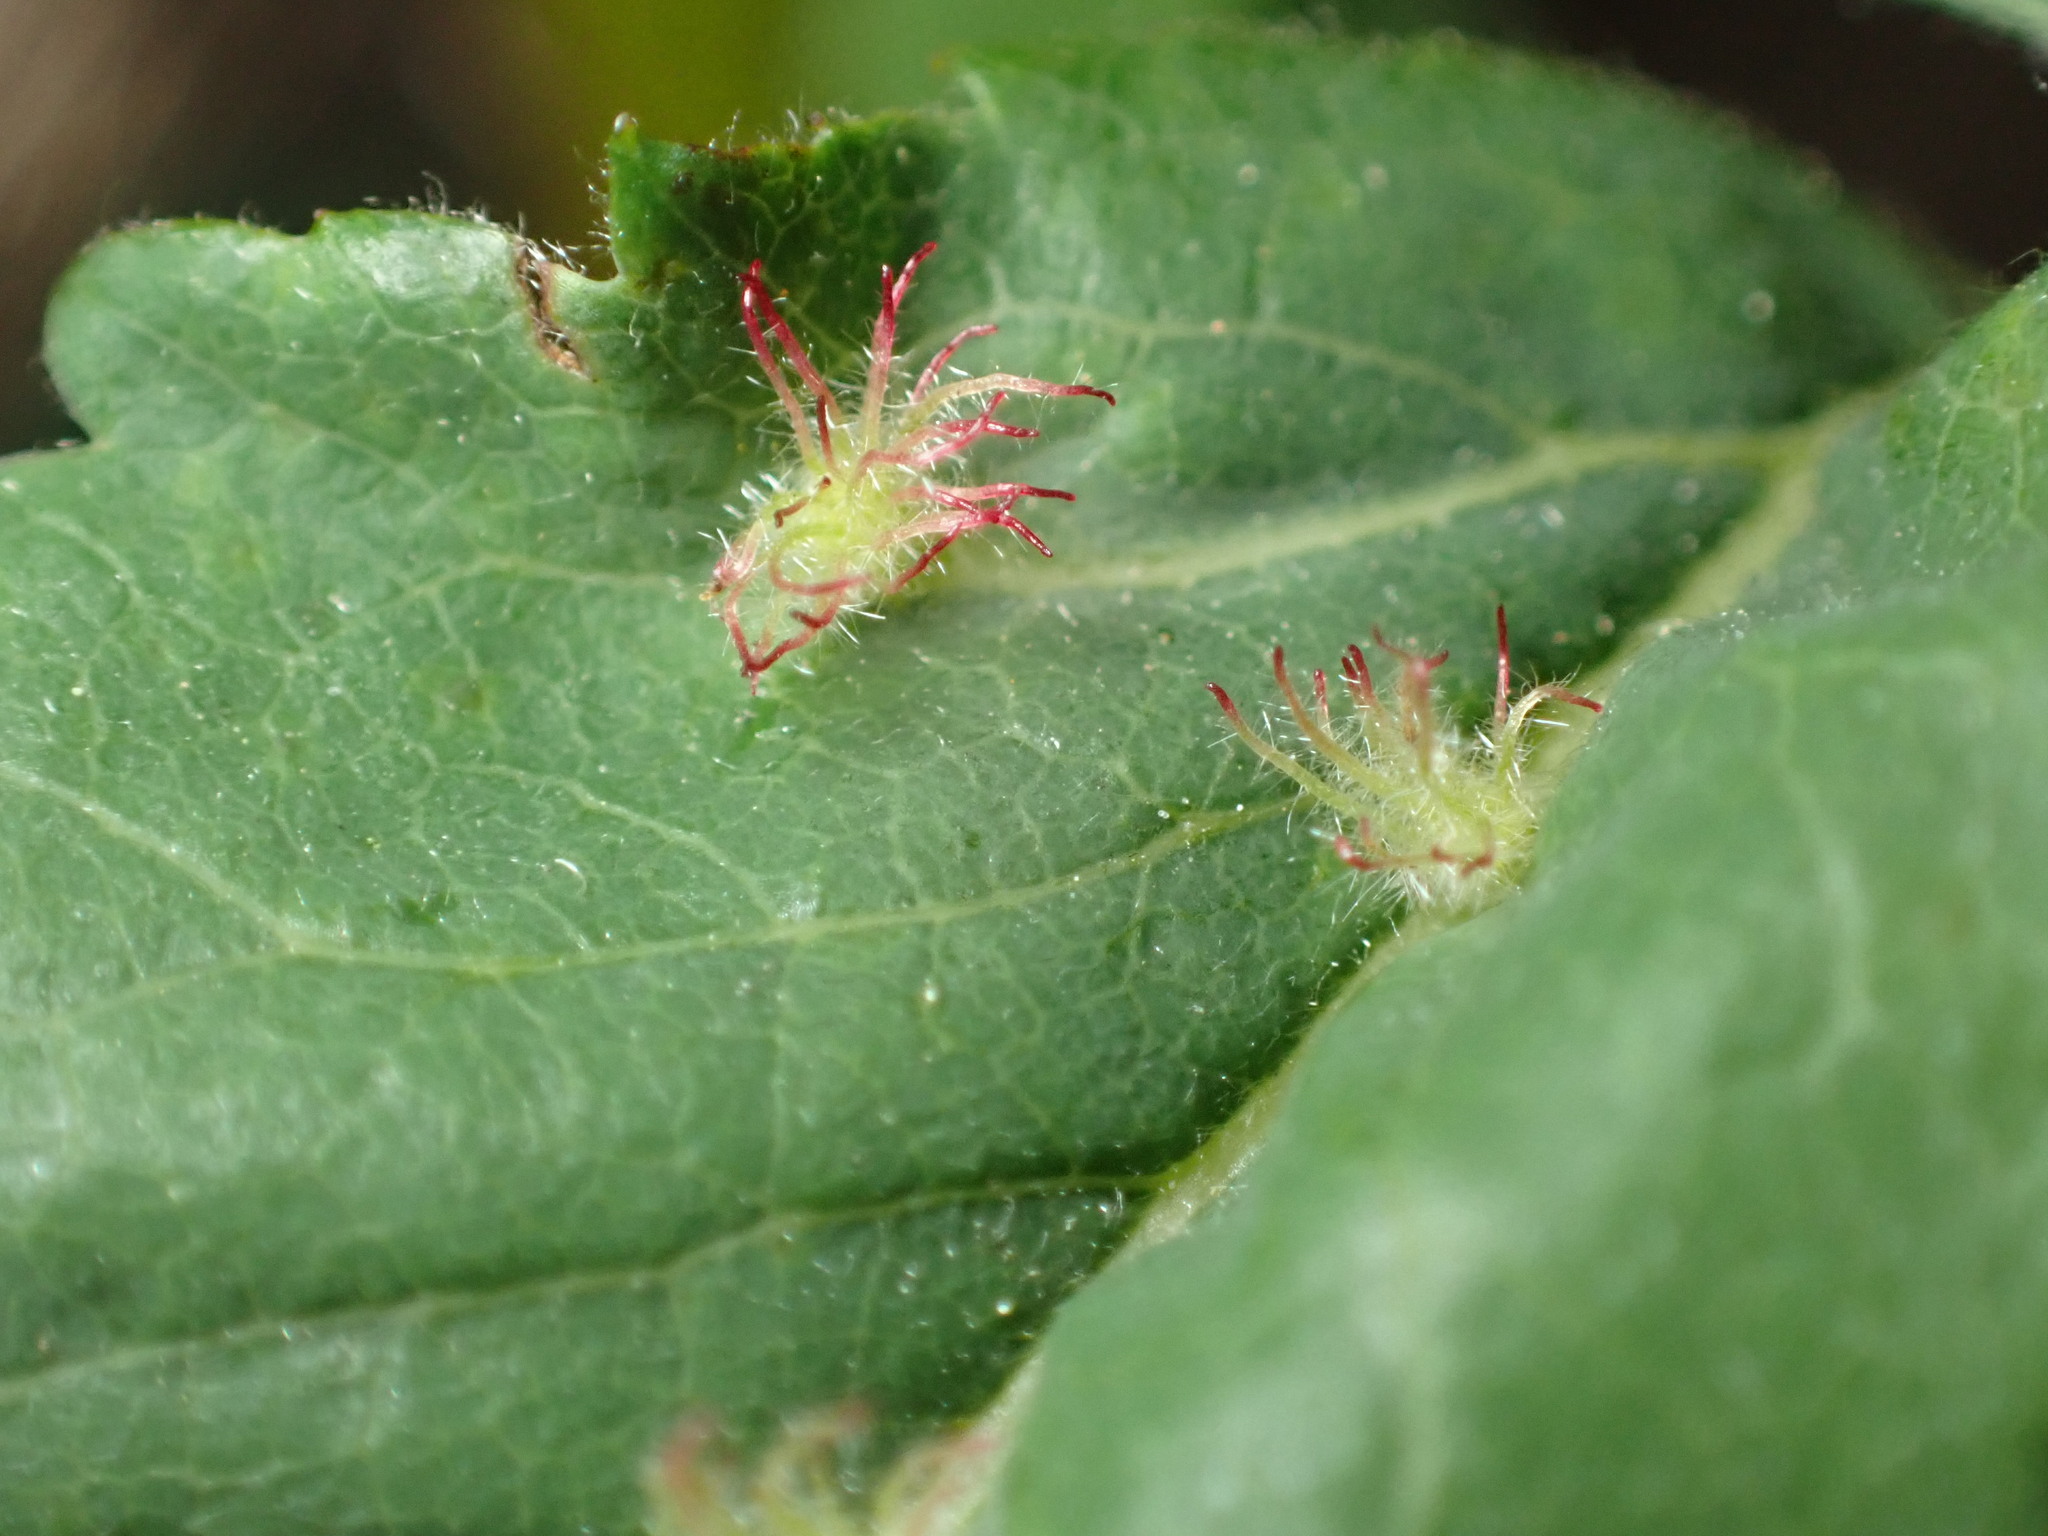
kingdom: Animalia
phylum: Arthropoda
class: Insecta
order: Hymenoptera
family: Cynipidae
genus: Diplolepis
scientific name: Diplolepis
